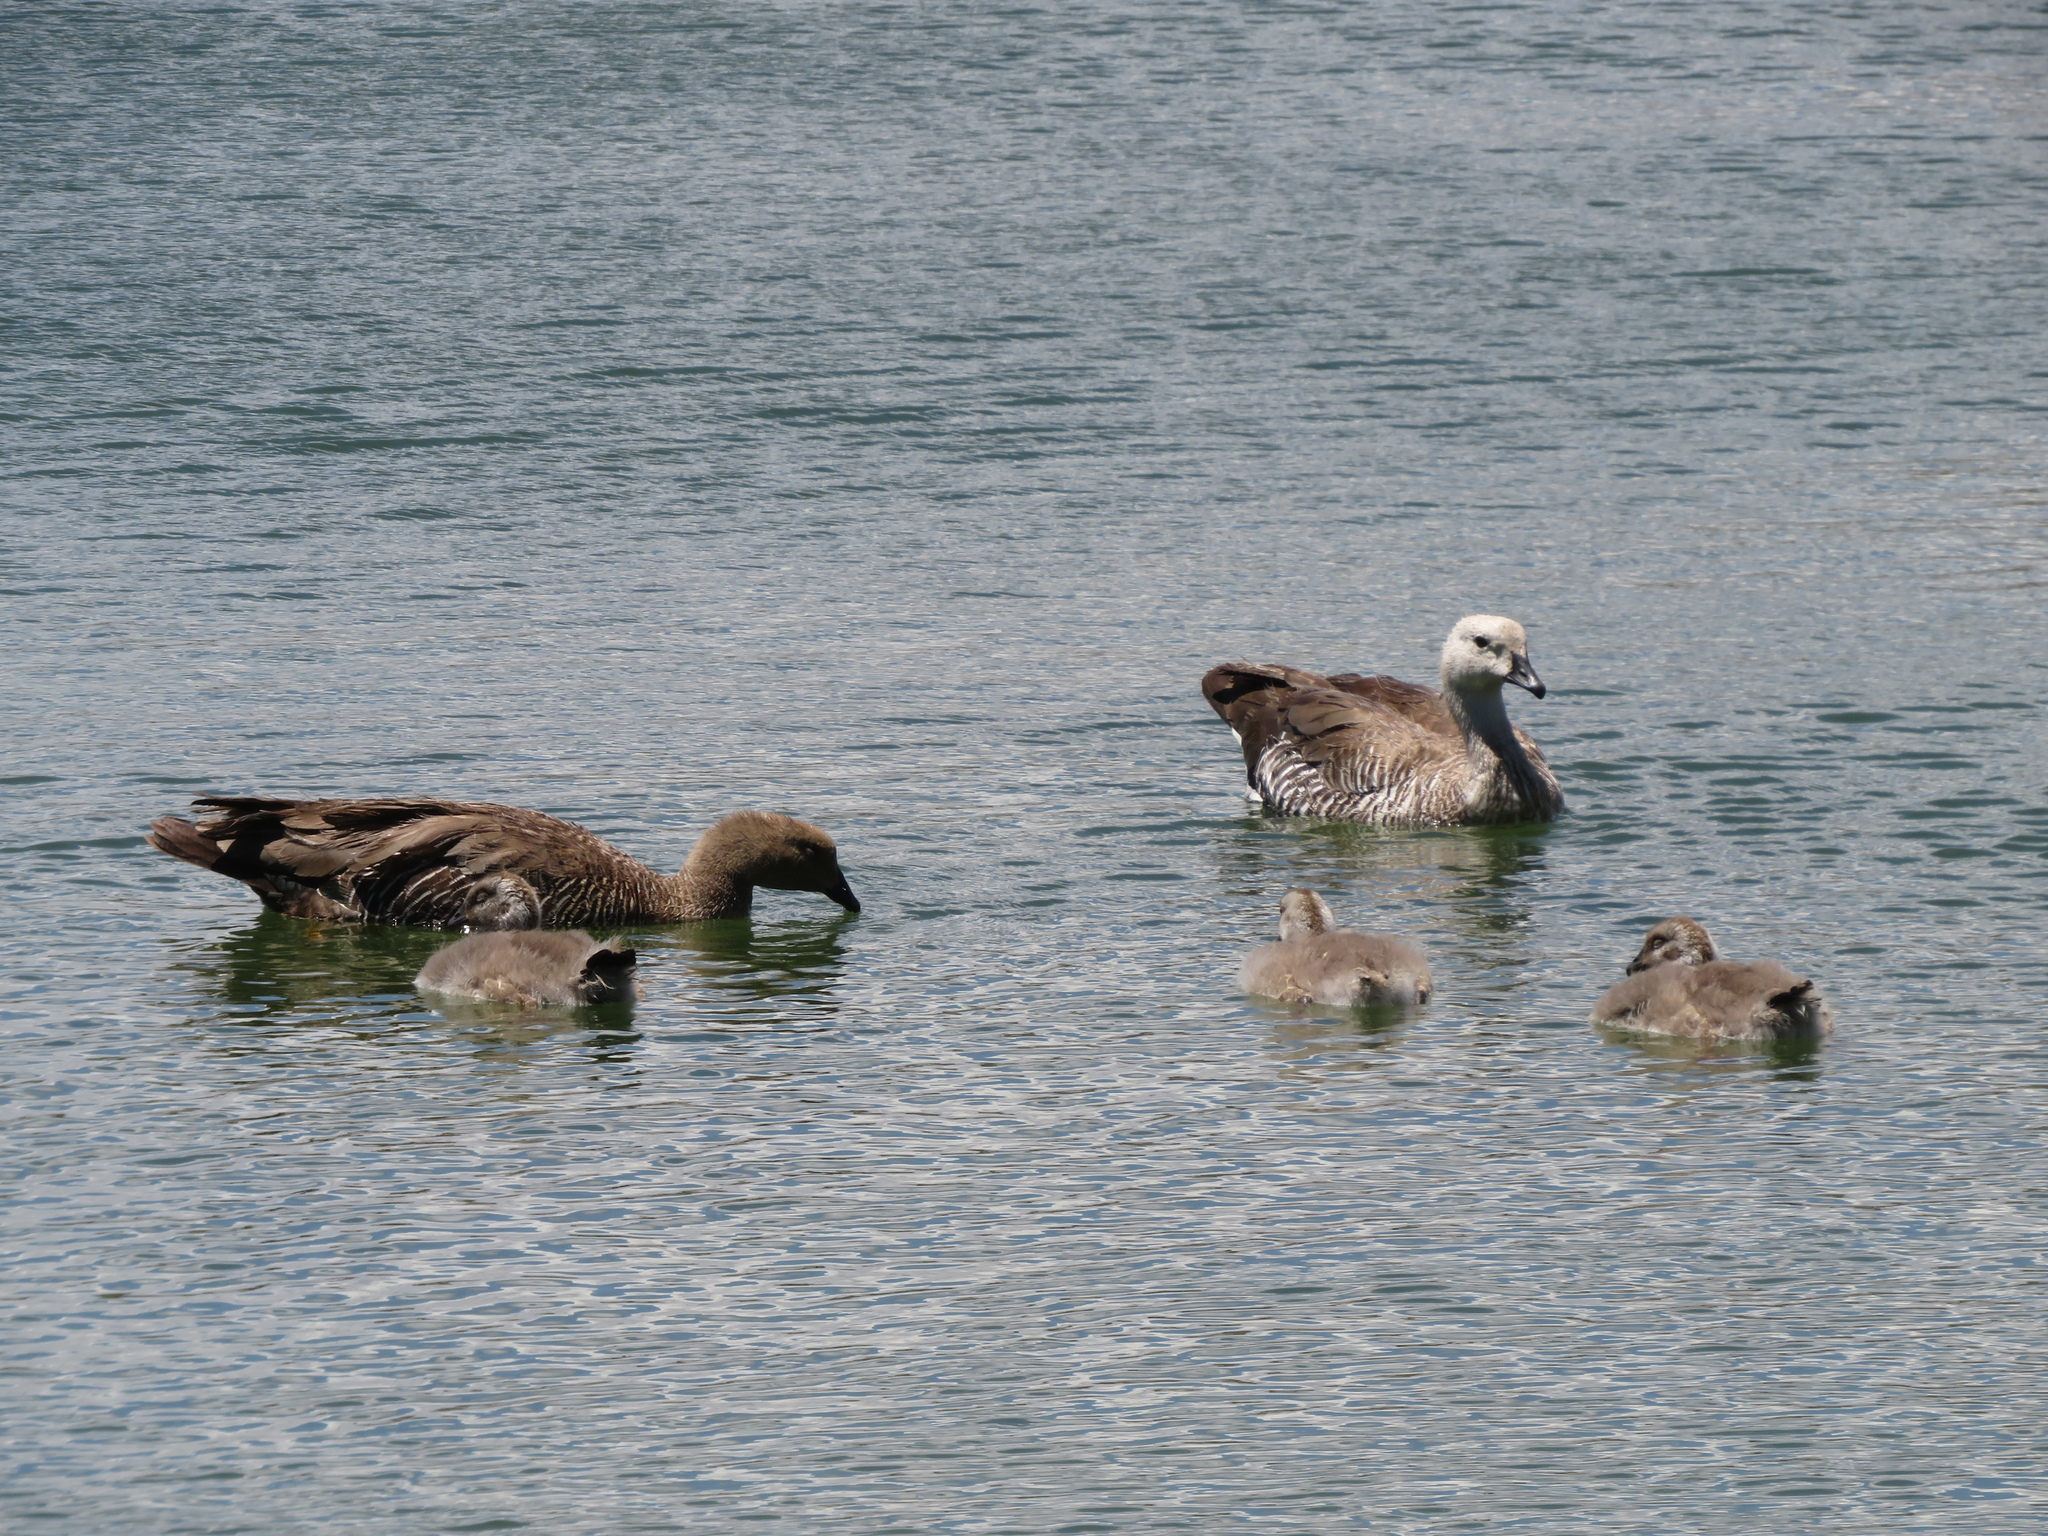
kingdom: Animalia
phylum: Chordata
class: Aves
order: Anseriformes
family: Anatidae
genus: Chloephaga
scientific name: Chloephaga picta
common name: Upland goose
